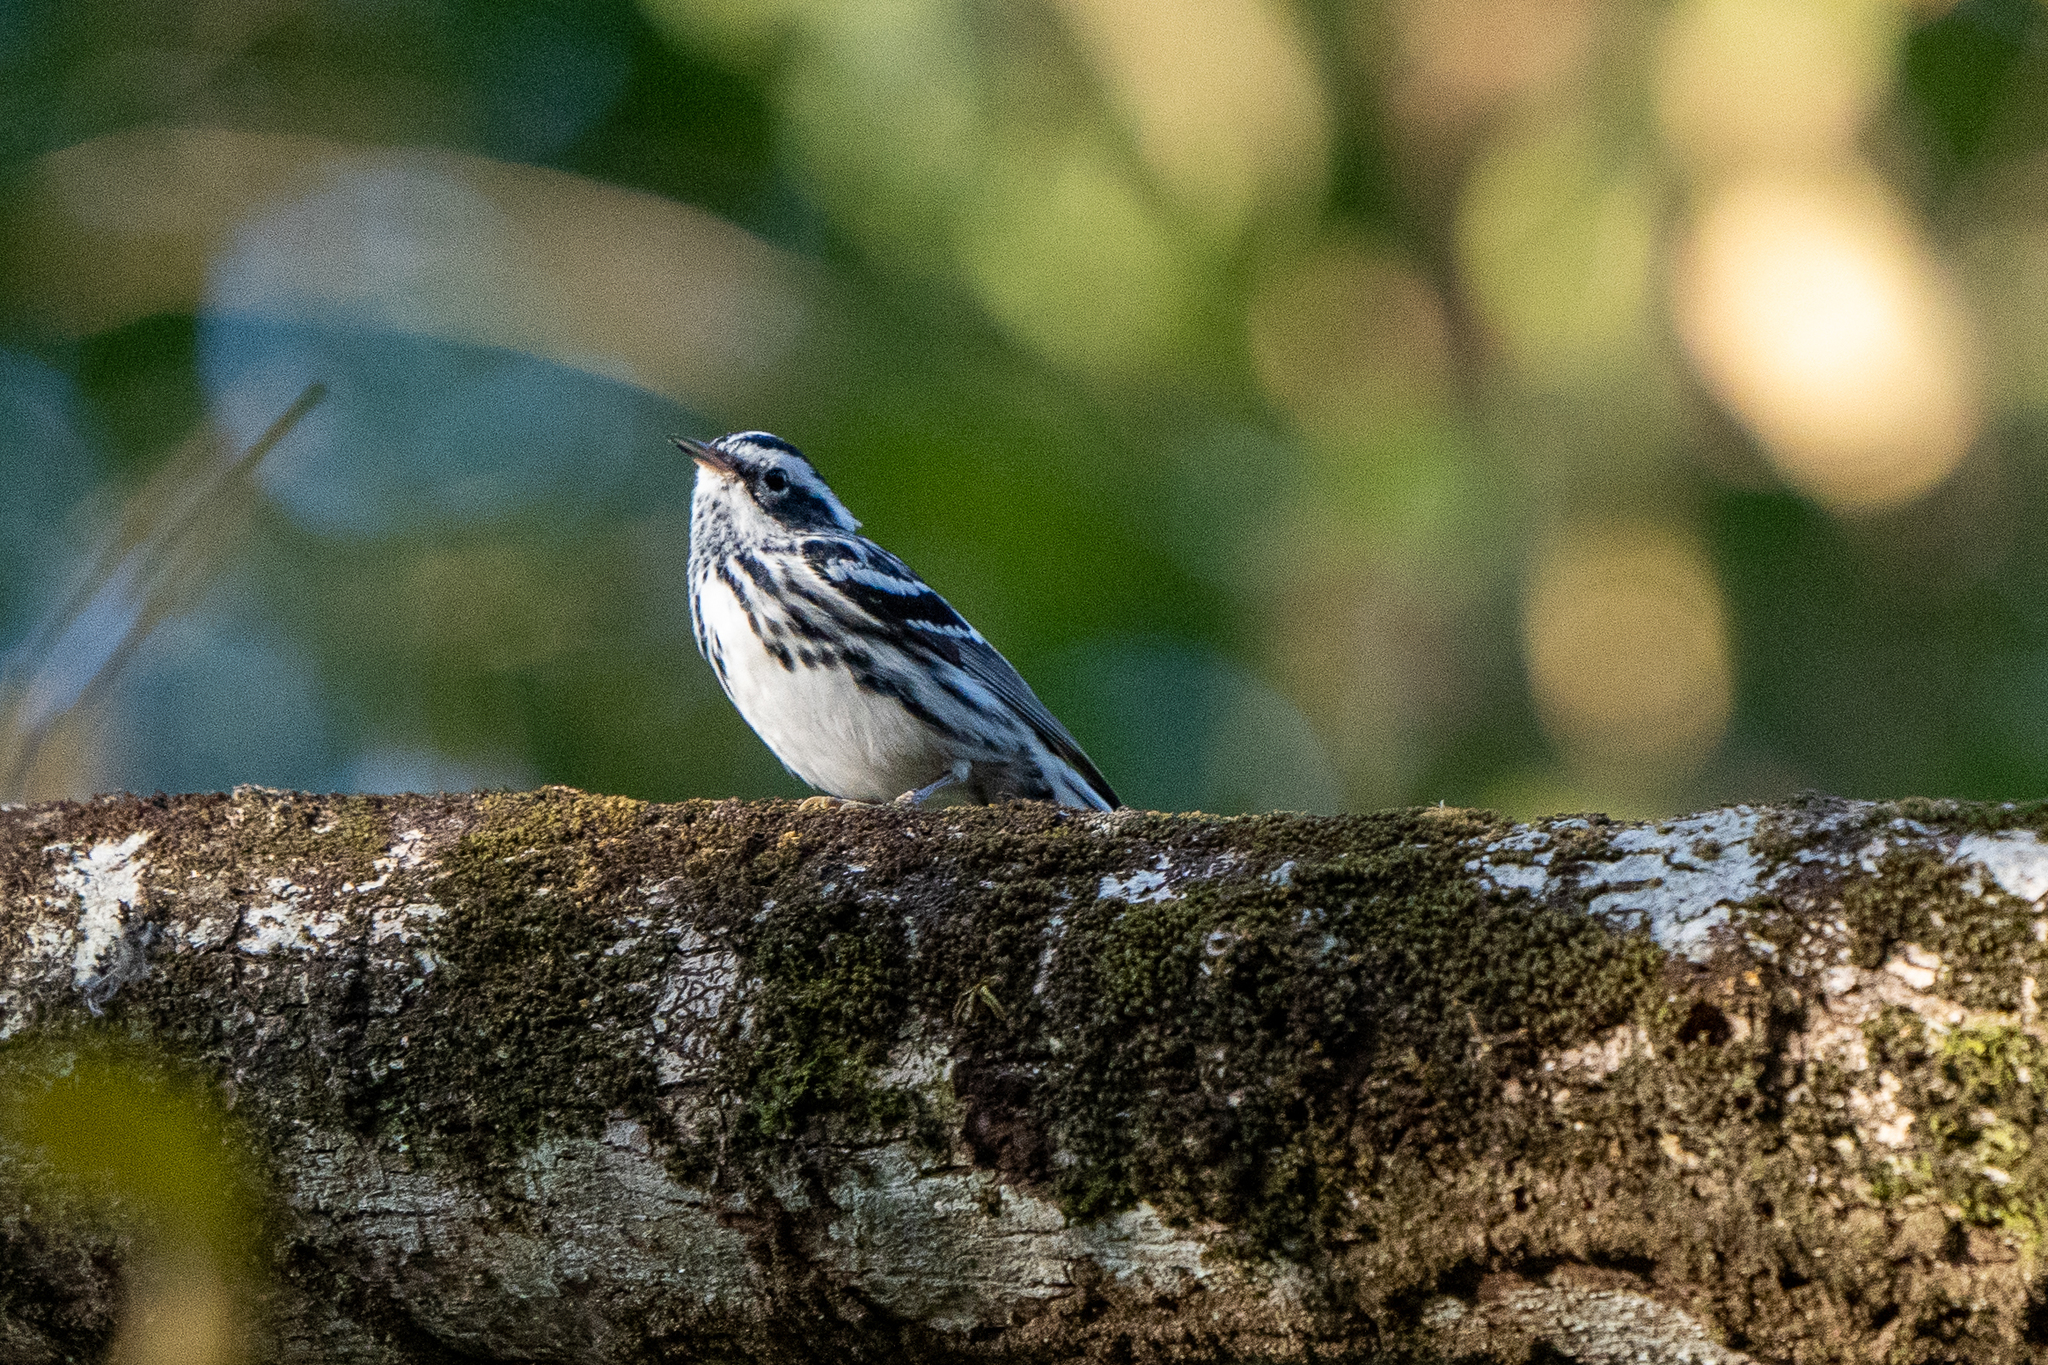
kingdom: Animalia
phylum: Chordata
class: Aves
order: Passeriformes
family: Parulidae
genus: Mniotilta
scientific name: Mniotilta varia
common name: Black-and-white warbler
